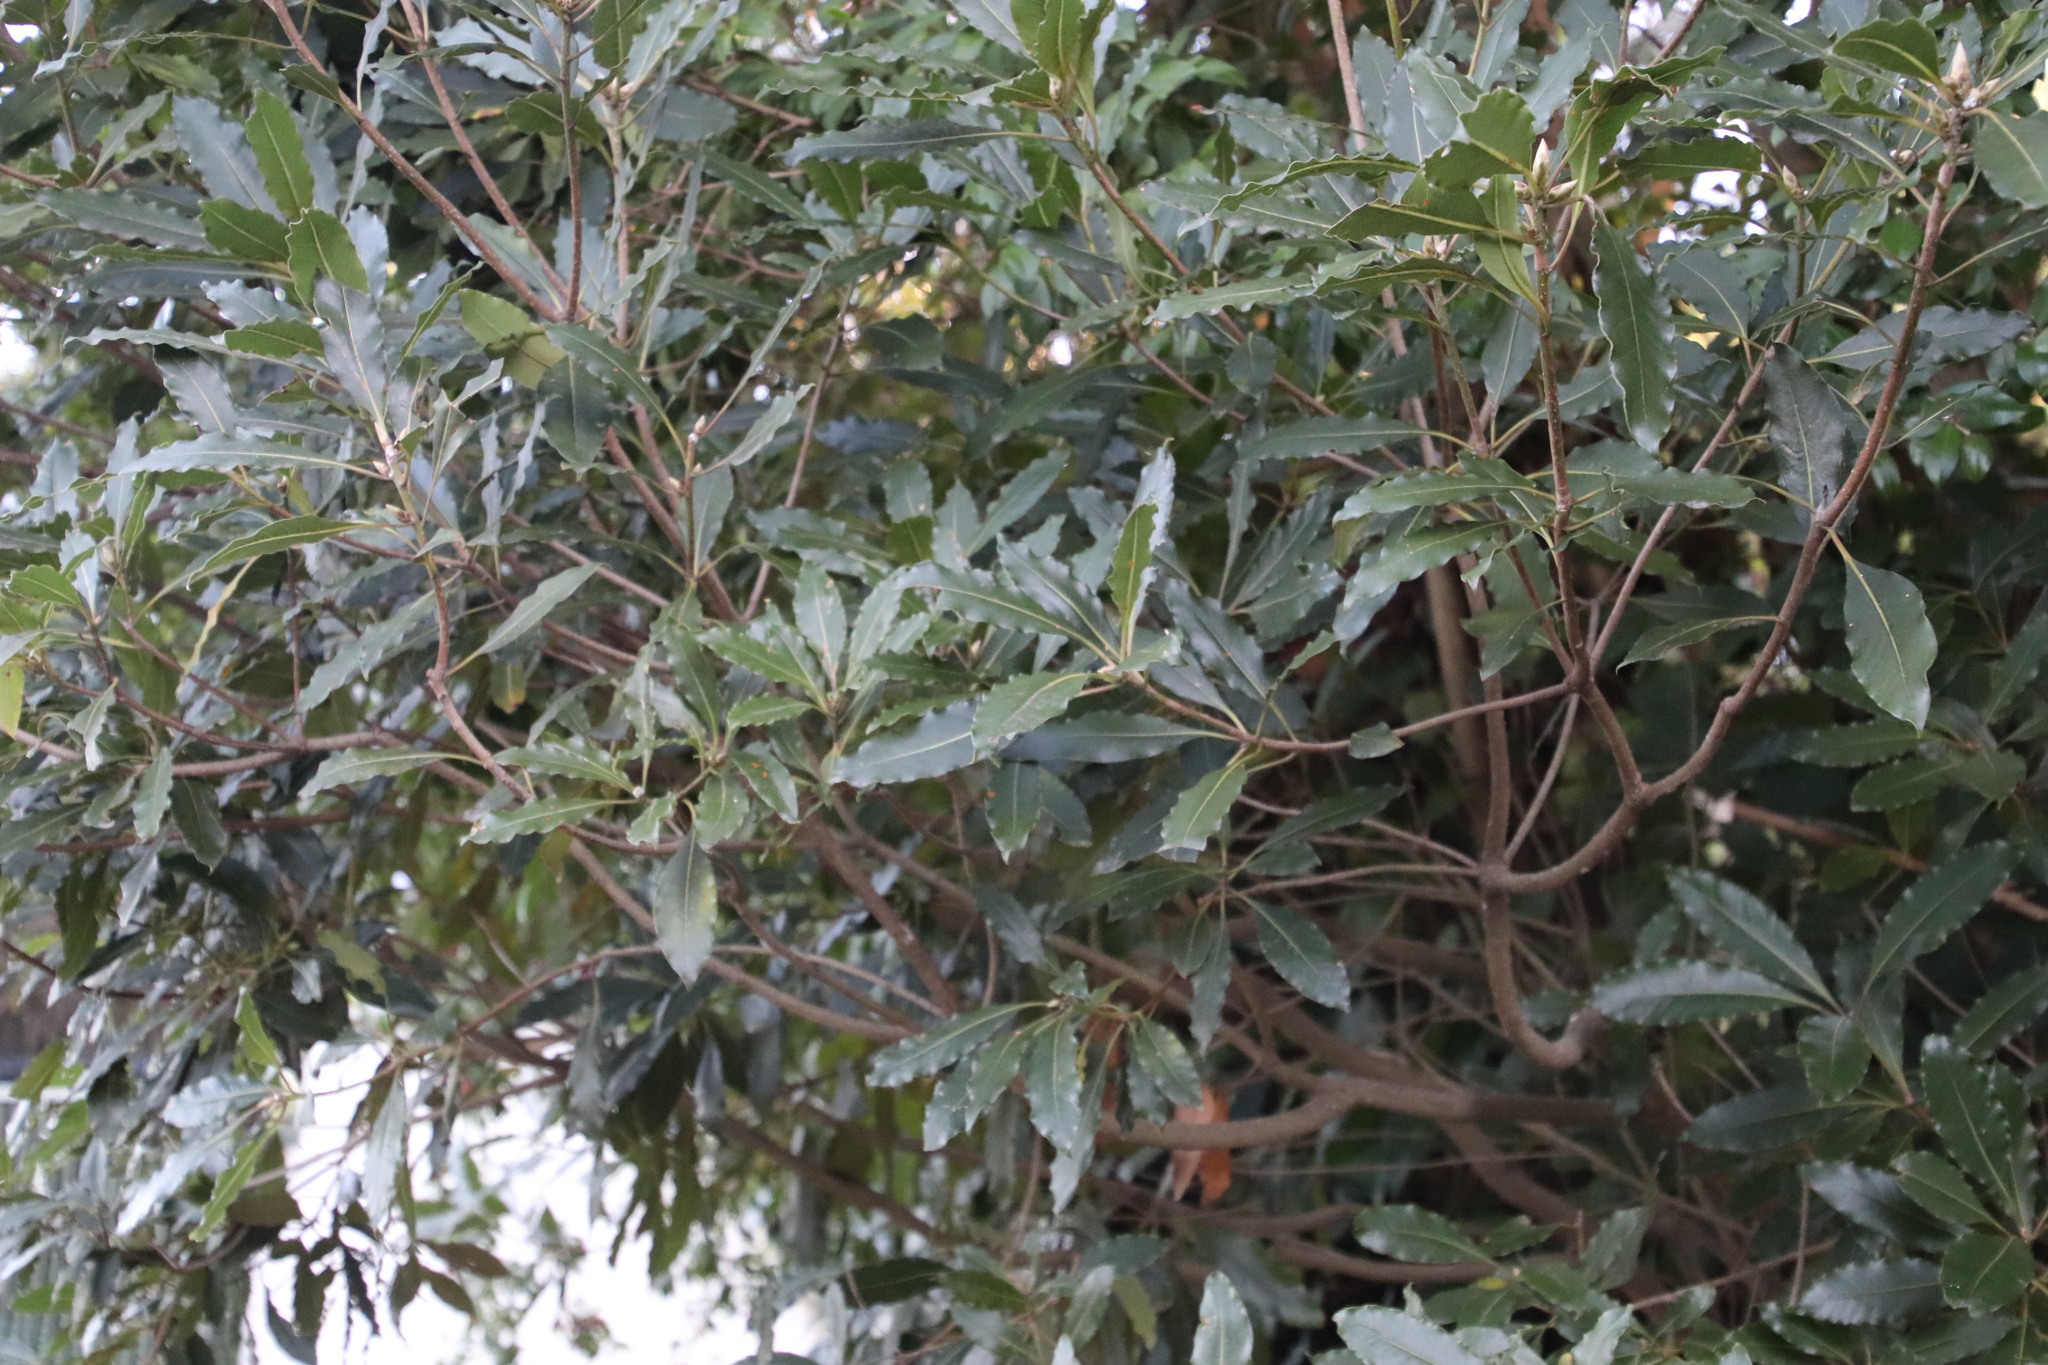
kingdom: Plantae
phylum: Tracheophyta
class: Magnoliopsida
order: Apiales
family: Pittosporaceae
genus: Pittosporum
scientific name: Pittosporum undulatum
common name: Australian cheesewood
